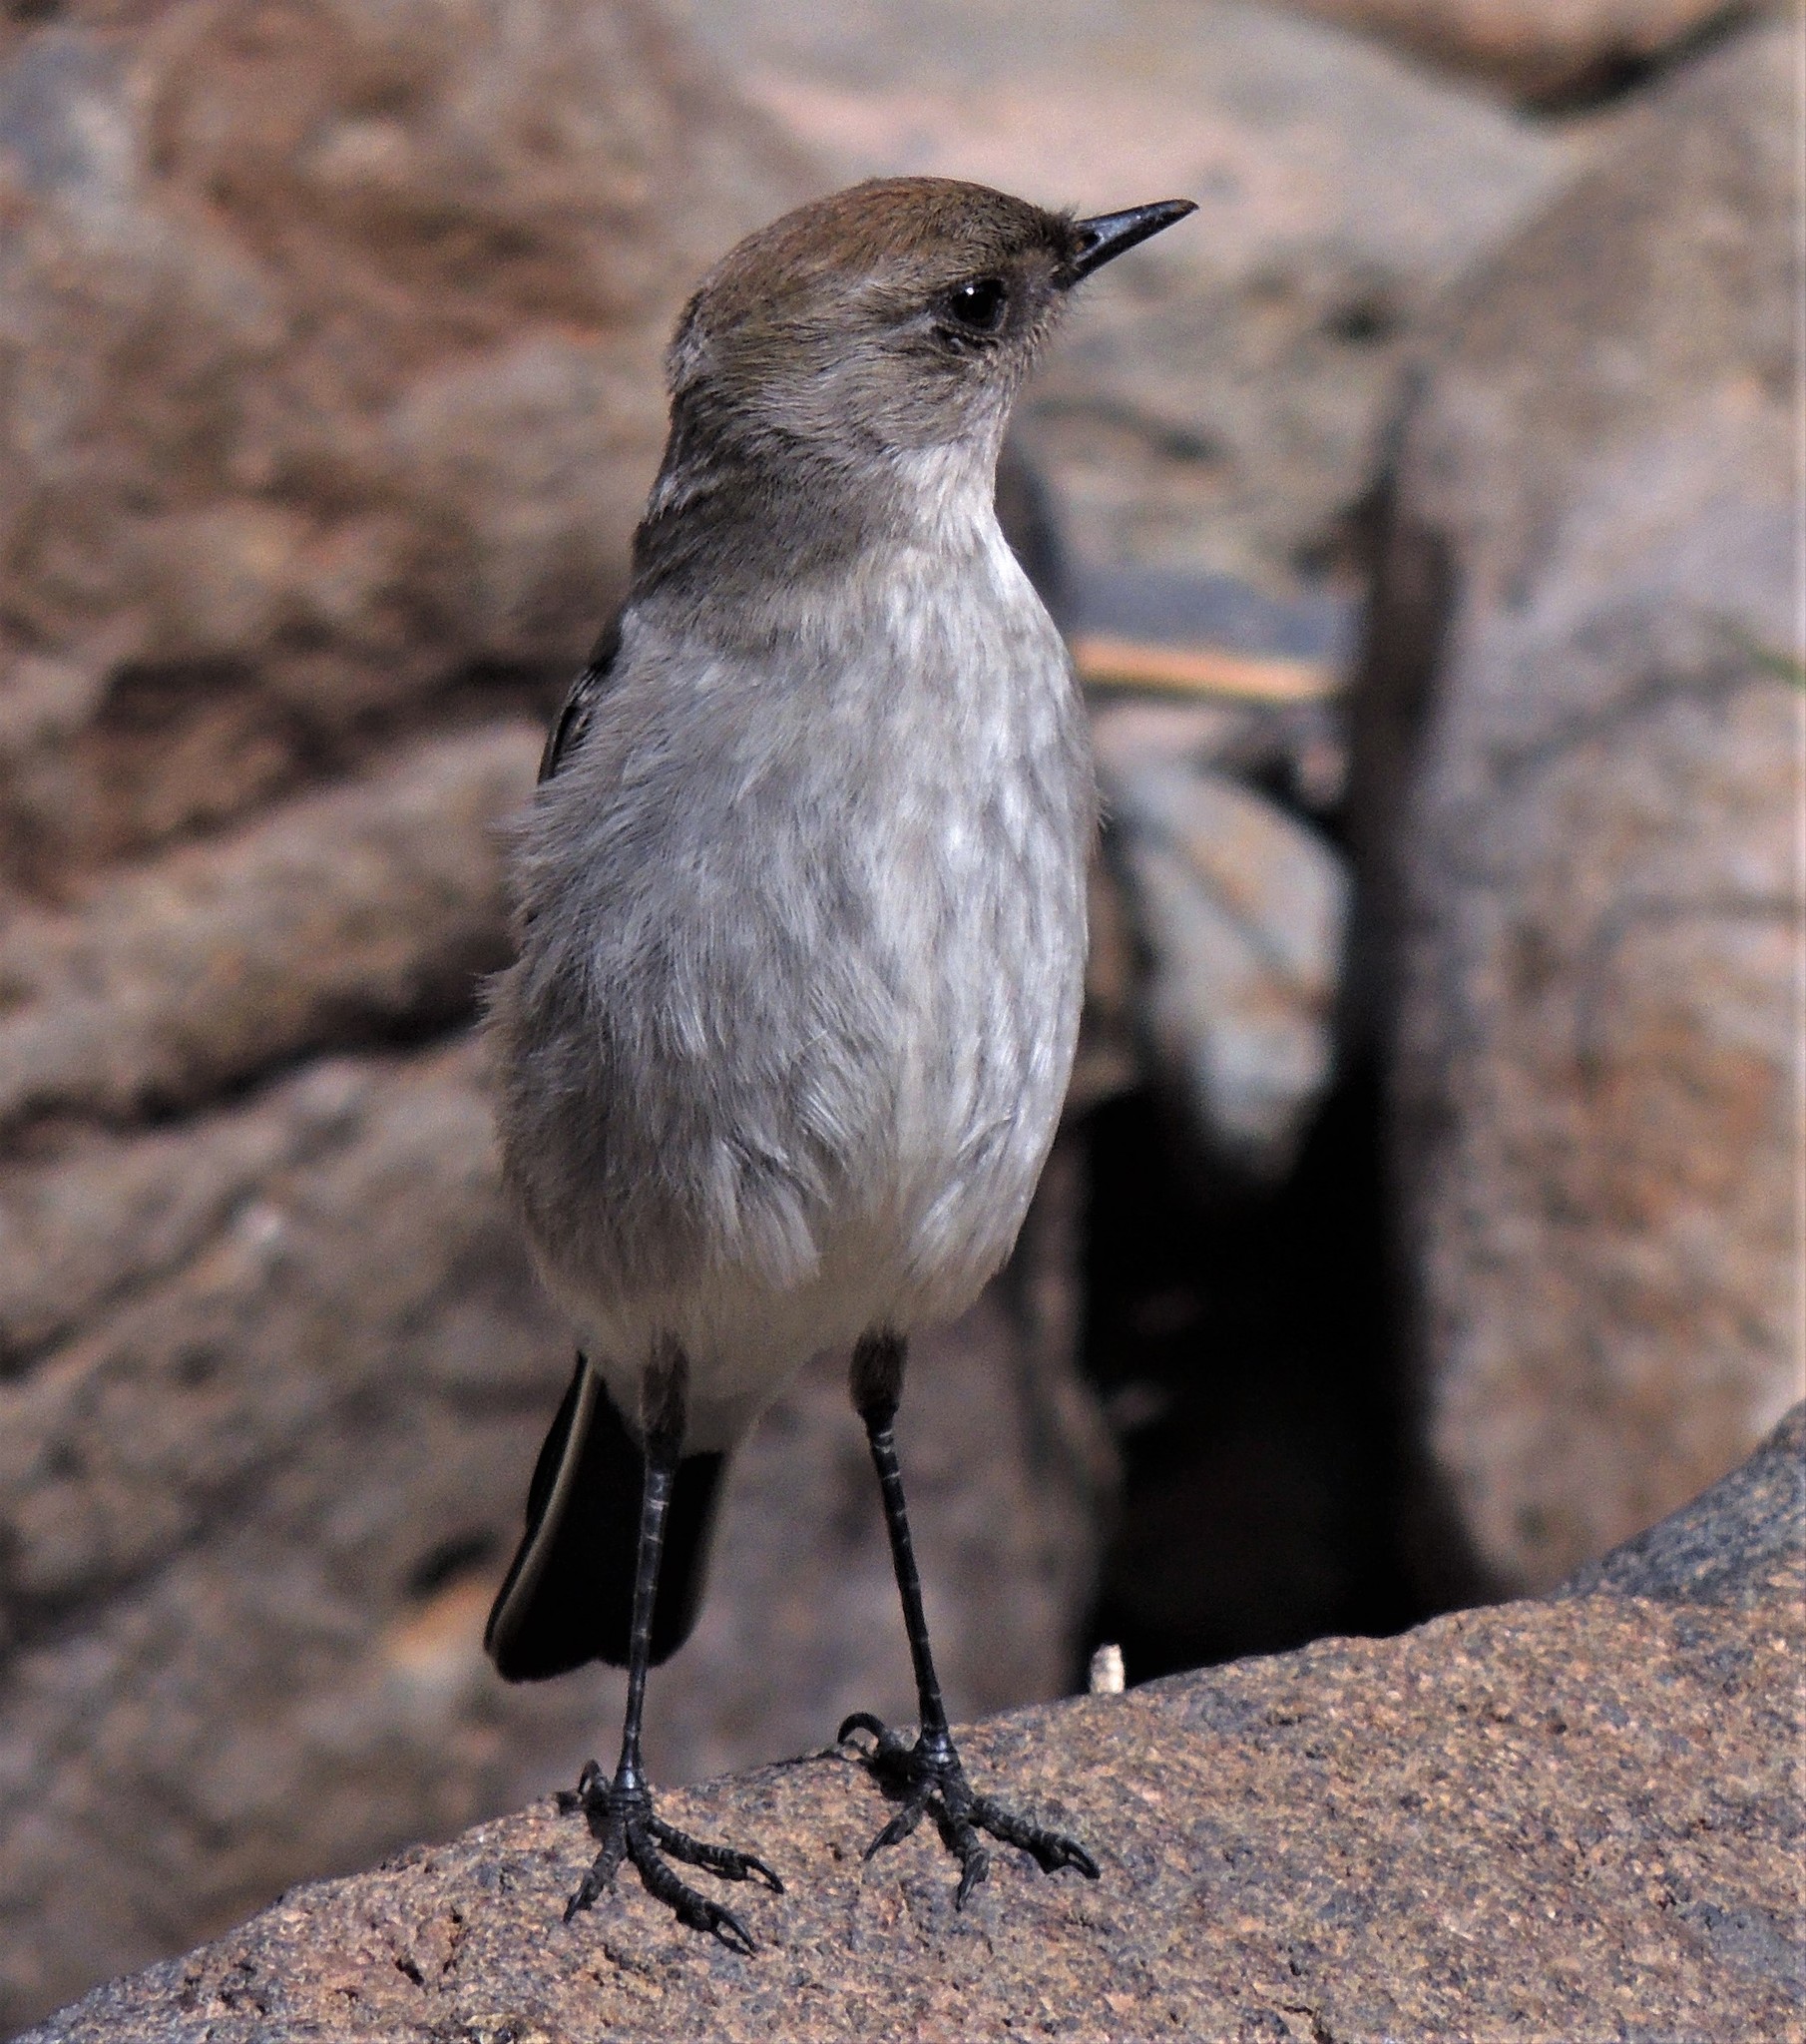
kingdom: Animalia
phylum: Chordata
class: Aves
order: Passeriformes
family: Tyrannidae
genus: Muscisaxicola
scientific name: Muscisaxicola maclovianus
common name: Dark-faced ground tyrant
